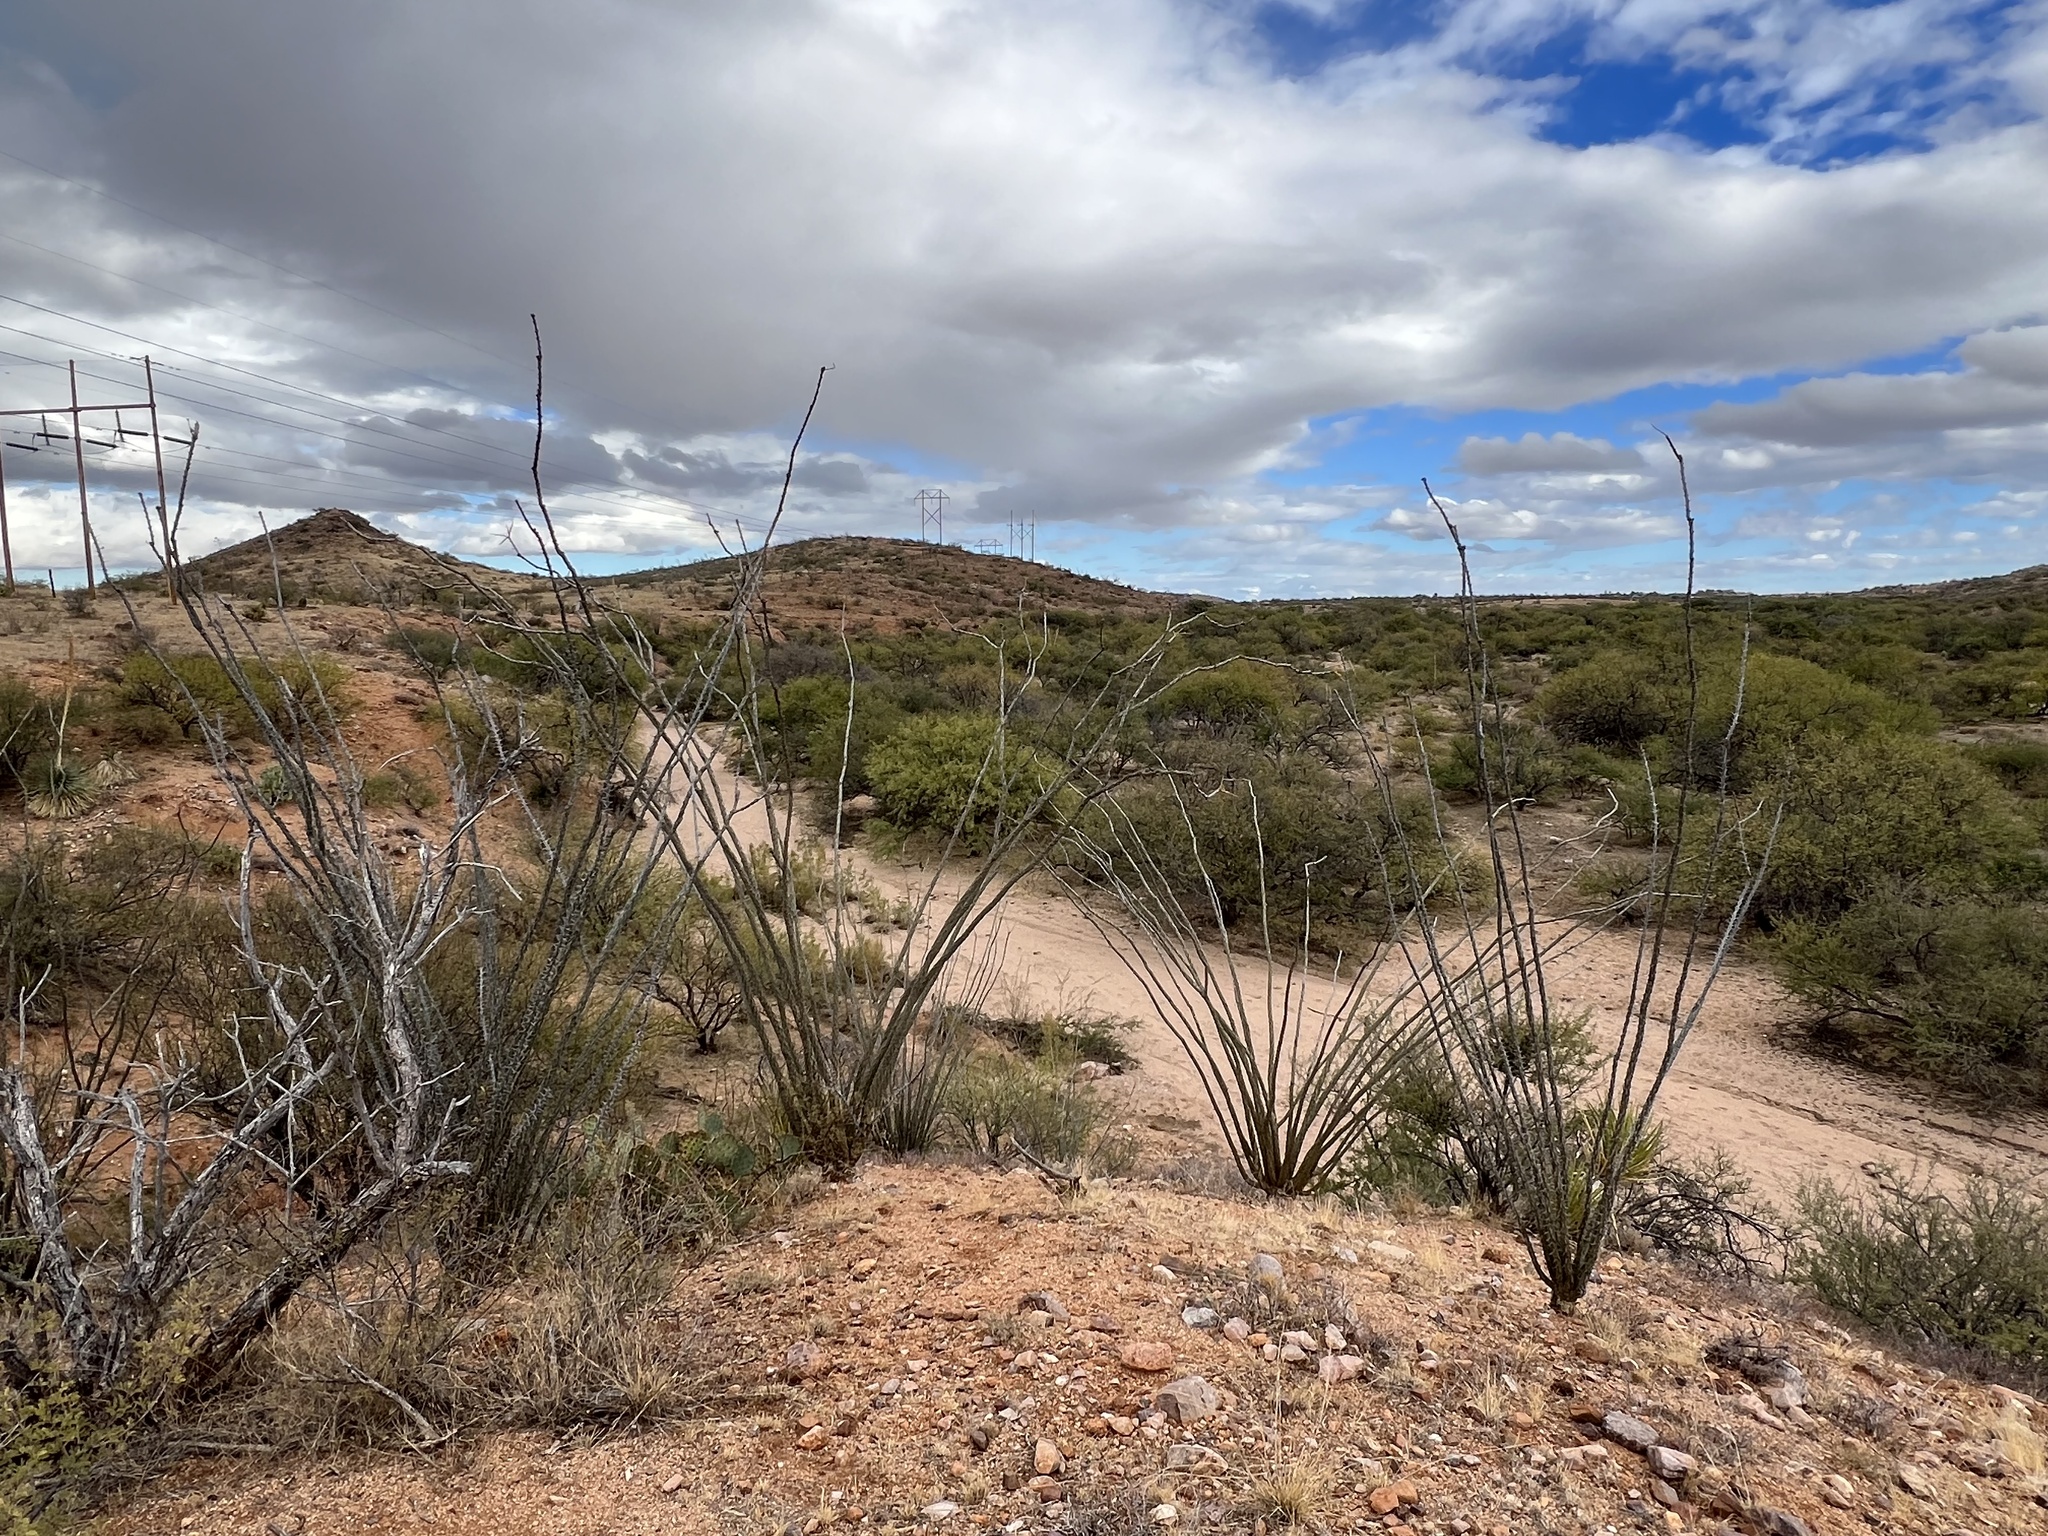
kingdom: Plantae
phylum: Tracheophyta
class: Magnoliopsida
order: Ericales
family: Fouquieriaceae
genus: Fouquieria
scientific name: Fouquieria splendens
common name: Vine-cactus
